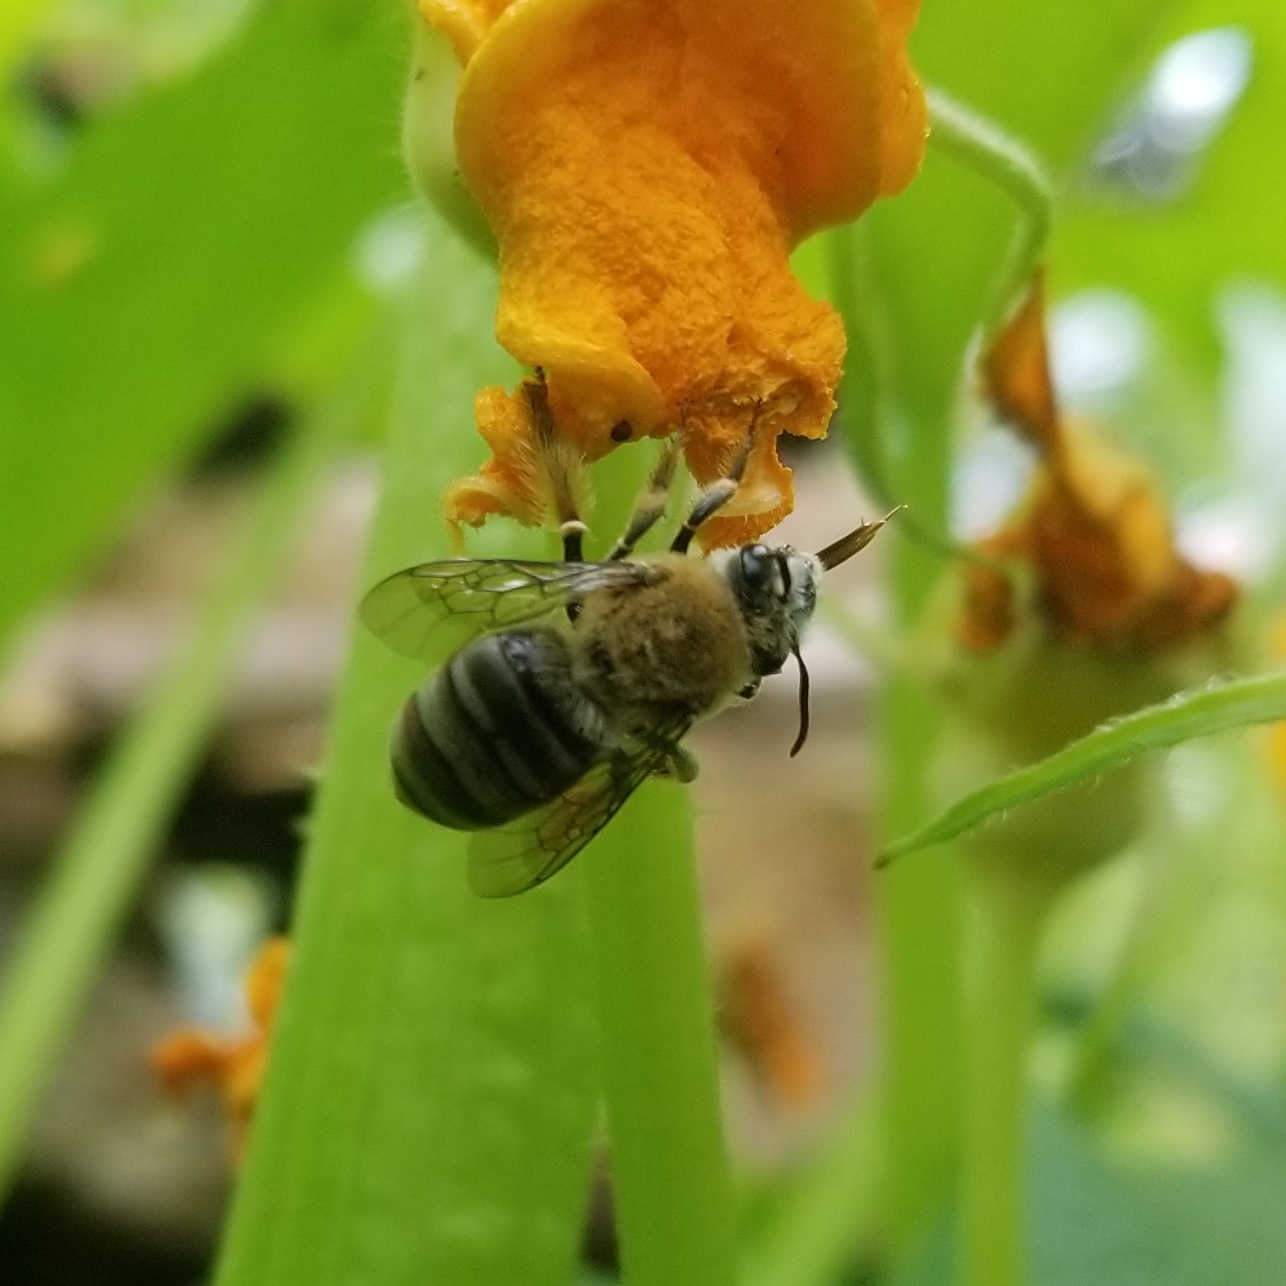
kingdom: Animalia
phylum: Arthropoda
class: Insecta
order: Hymenoptera
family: Apidae
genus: Peponapis
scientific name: Peponapis pruinosa
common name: Pruinose squash bee
